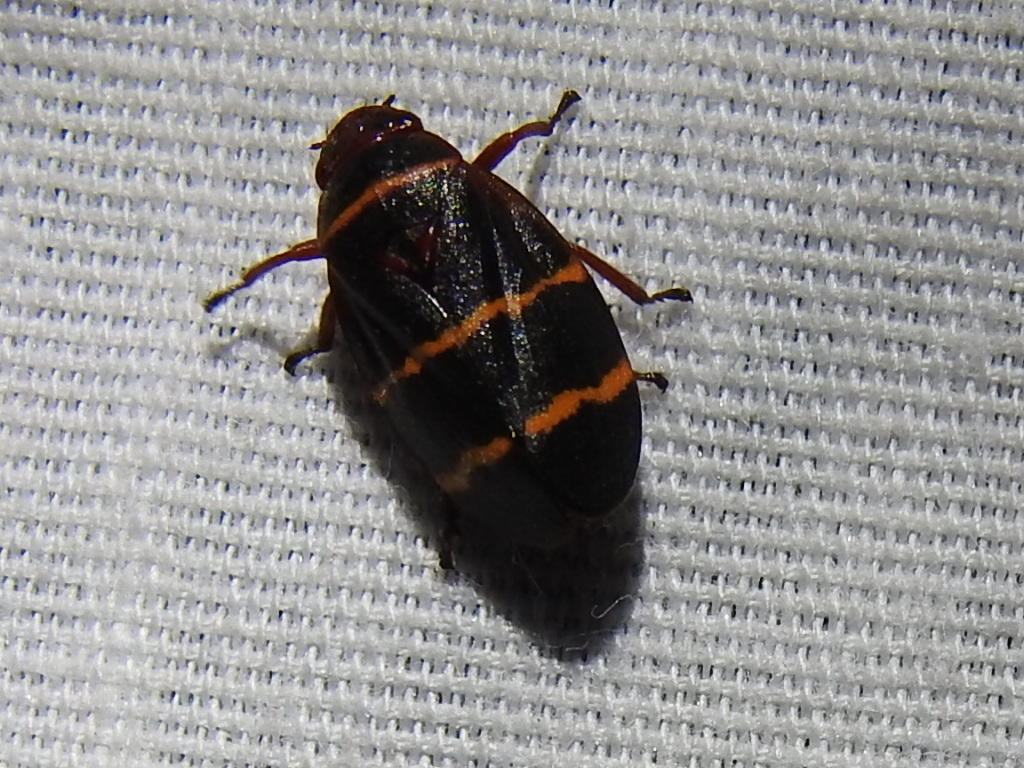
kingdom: Animalia
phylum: Arthropoda
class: Insecta
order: Hemiptera
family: Cercopidae
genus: Prosapia
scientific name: Prosapia bicincta
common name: Twolined spittlebug
